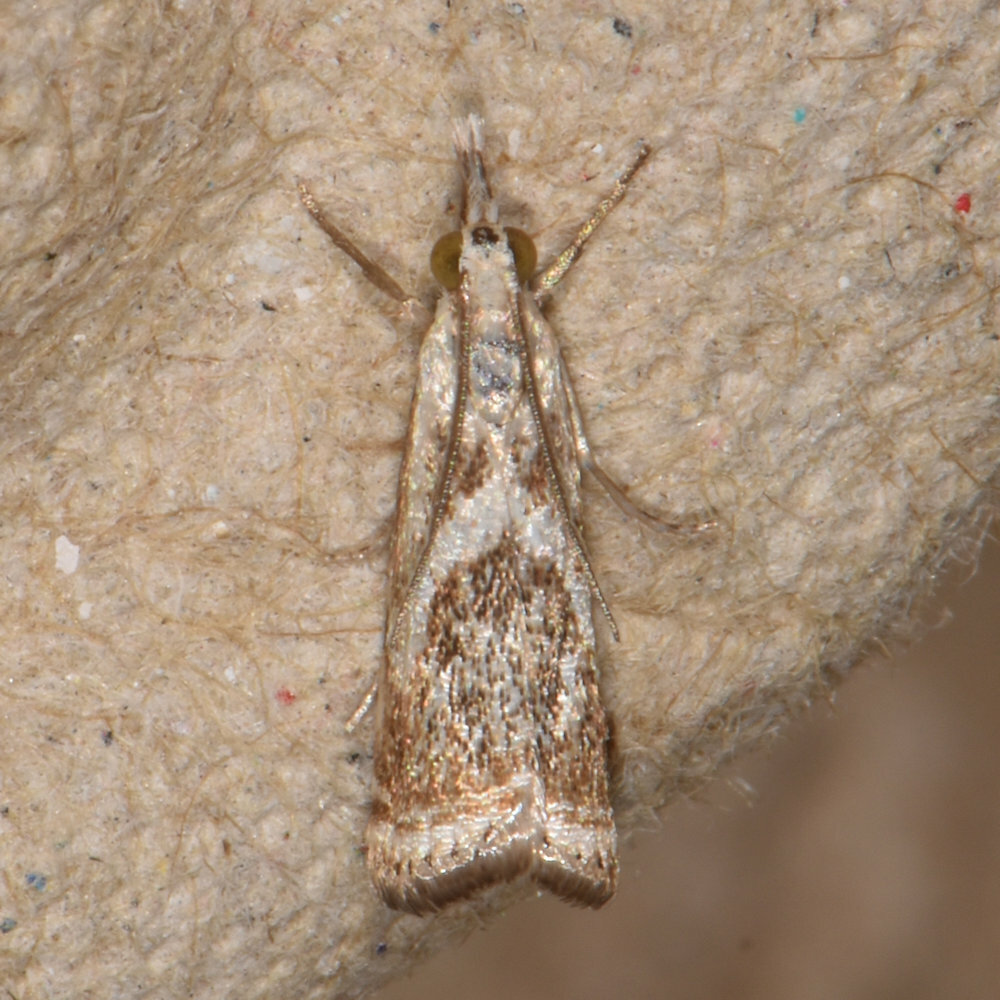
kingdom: Animalia
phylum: Arthropoda
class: Insecta
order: Lepidoptera
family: Crambidae
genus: Microcrambus
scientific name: Microcrambus elegans
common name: Elegant grass-veneer
